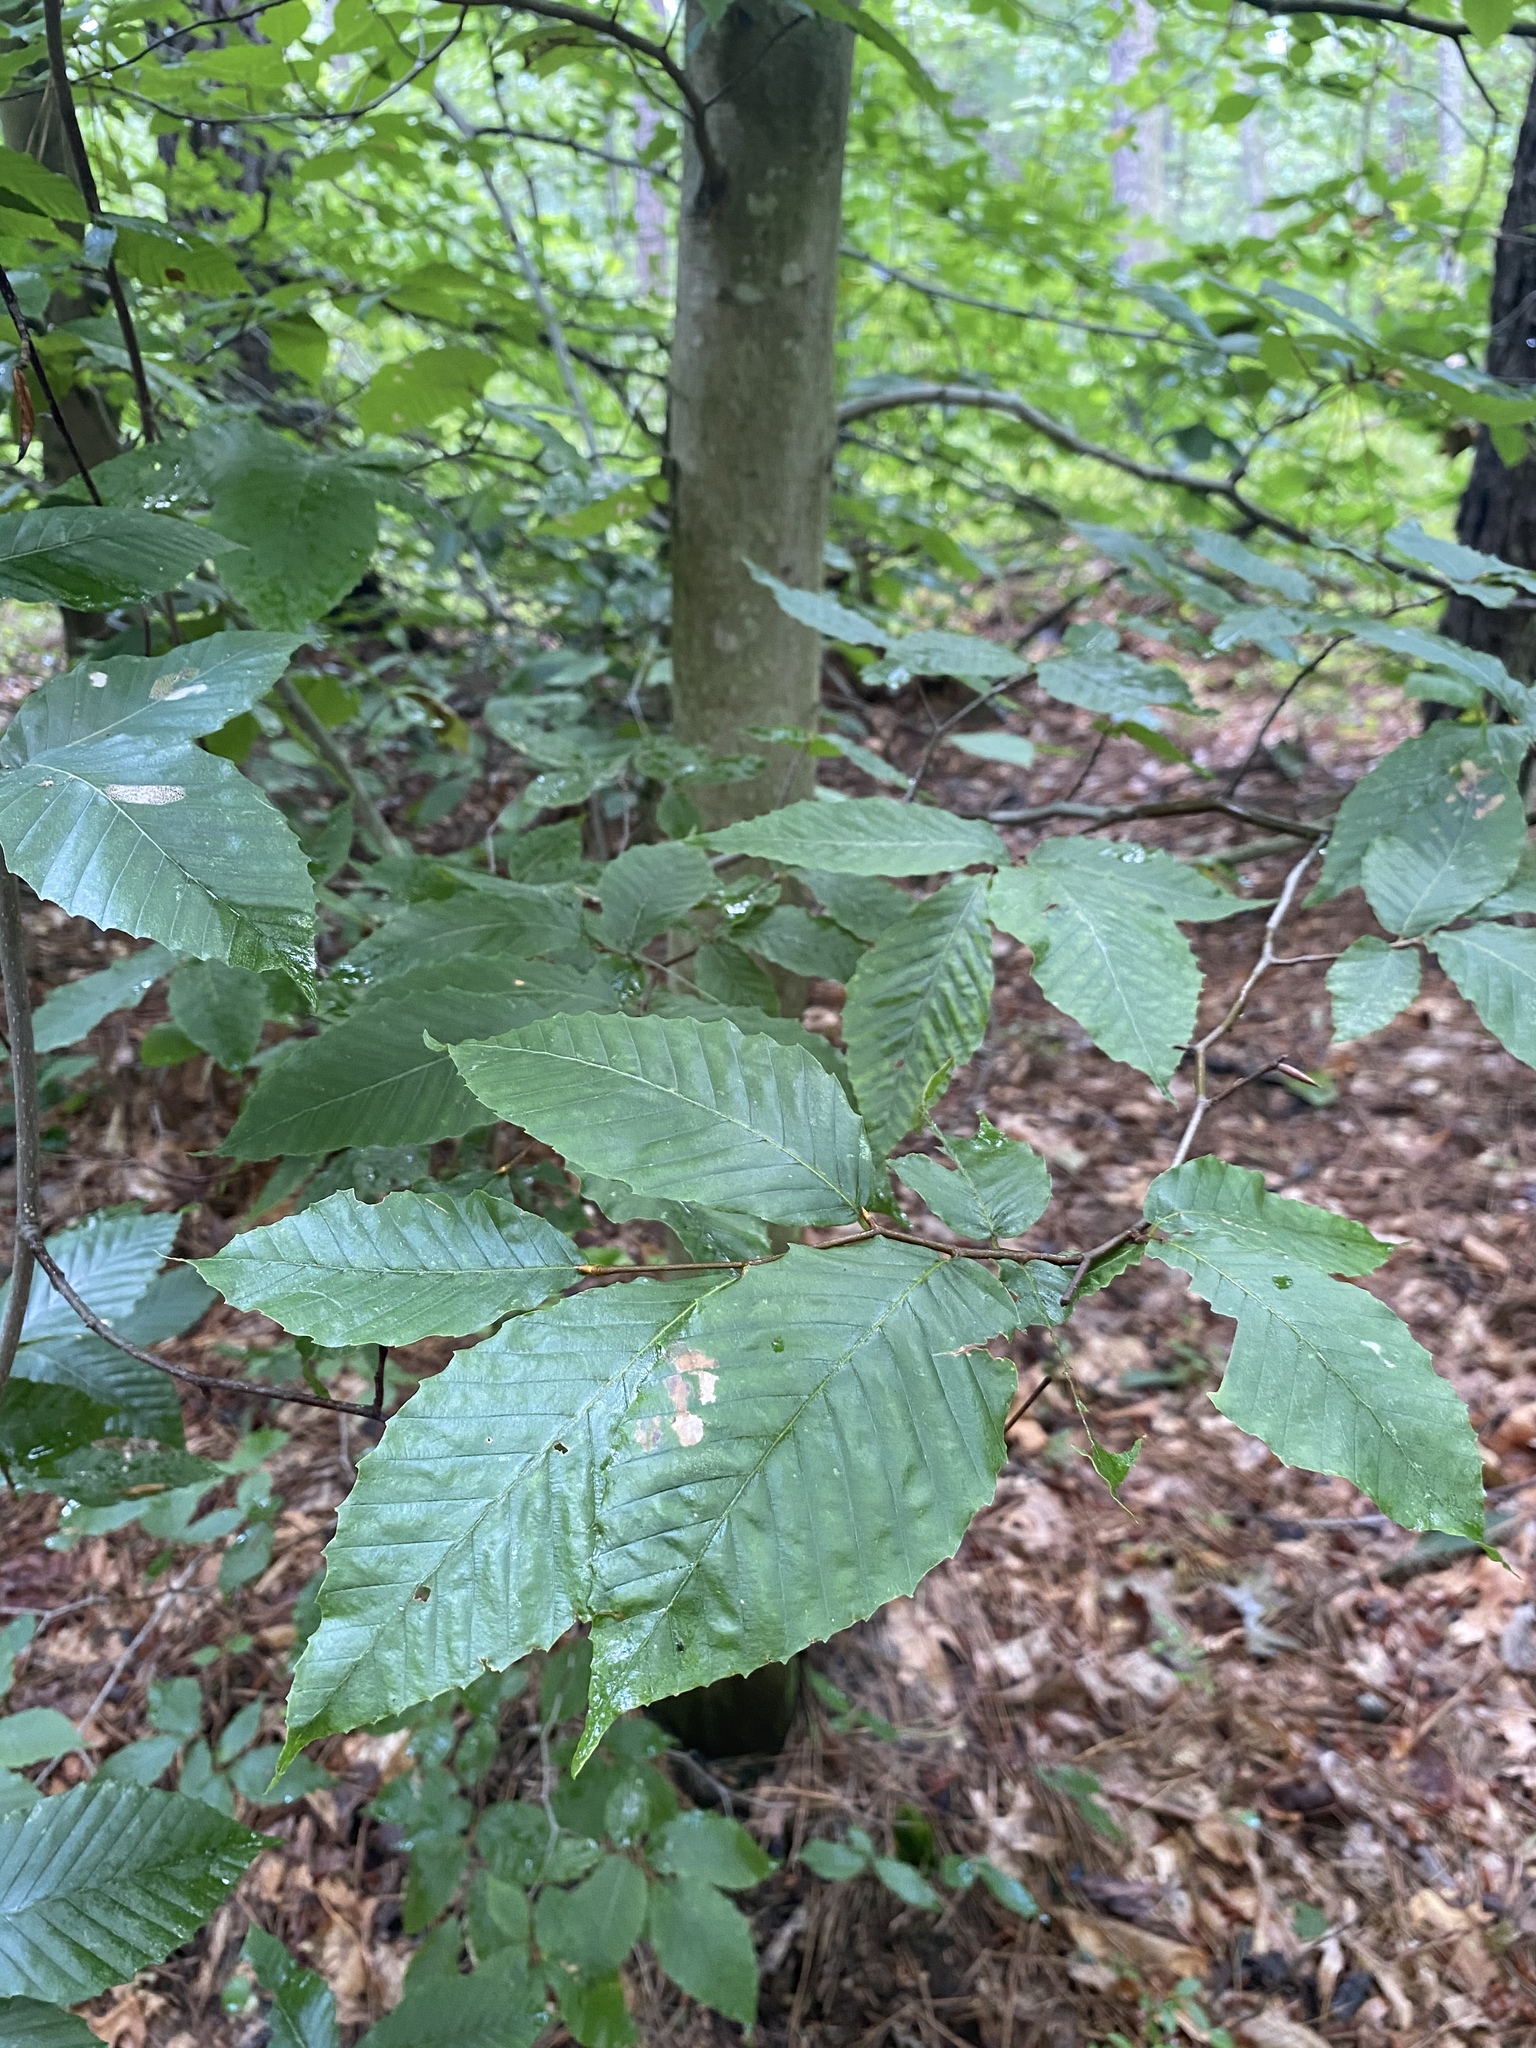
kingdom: Plantae
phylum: Tracheophyta
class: Magnoliopsida
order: Fagales
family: Fagaceae
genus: Fagus
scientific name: Fagus grandifolia
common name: American beech
